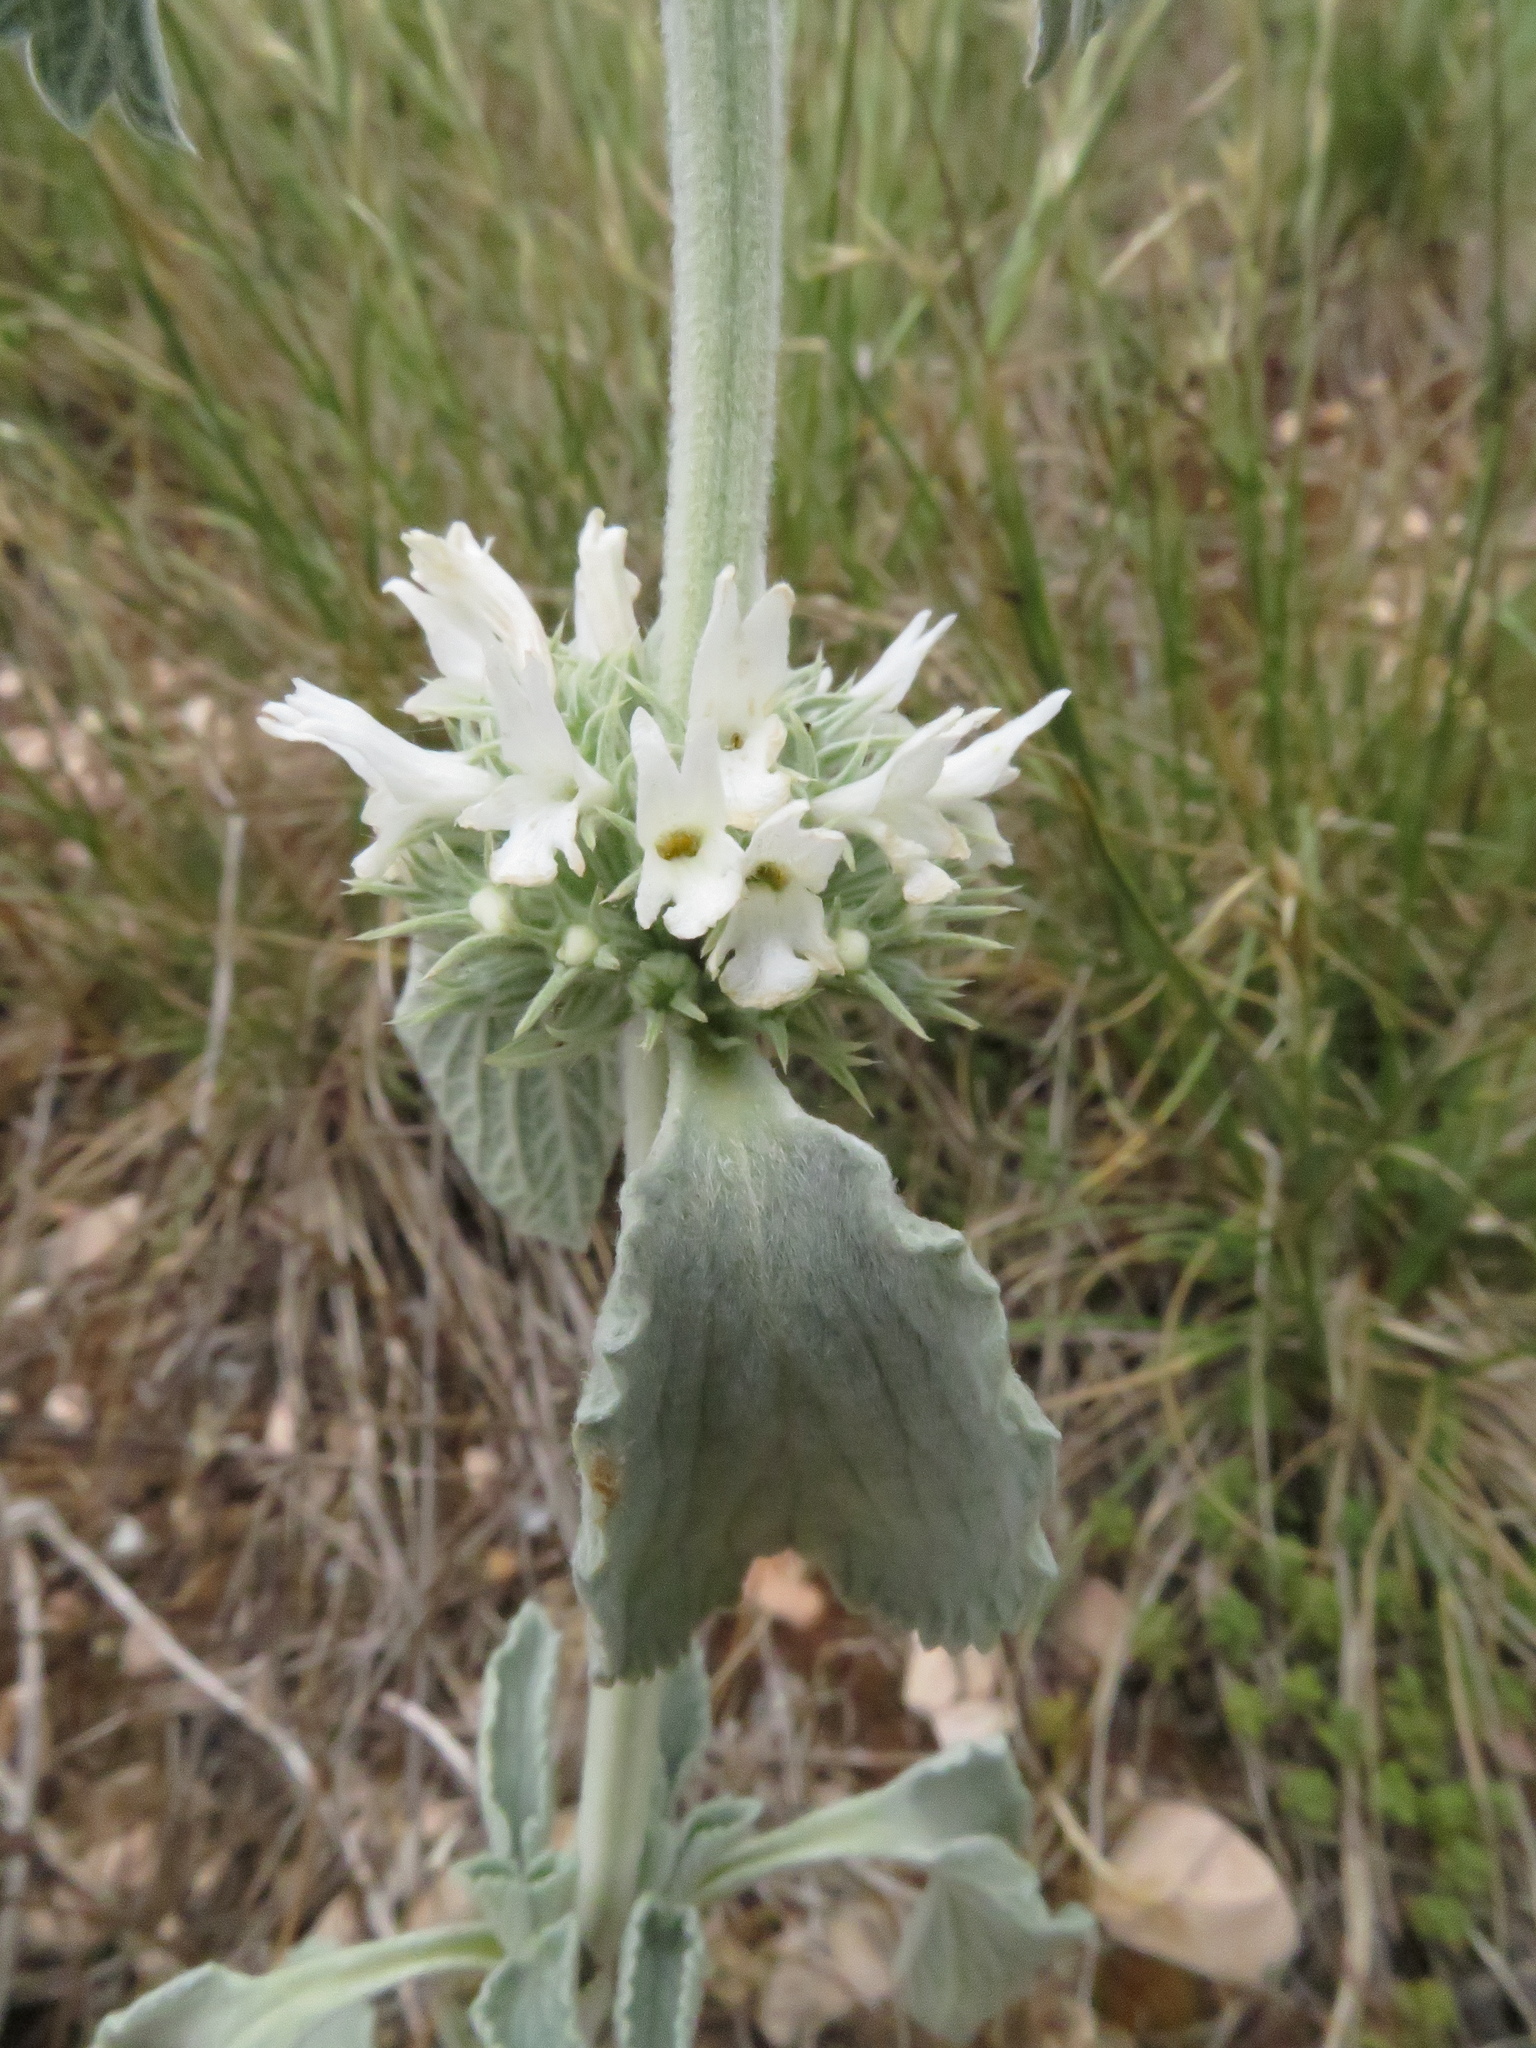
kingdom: Plantae
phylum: Tracheophyta
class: Magnoliopsida
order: Lamiales
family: Lamiaceae
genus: Marrubium
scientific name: Marrubium incanum
